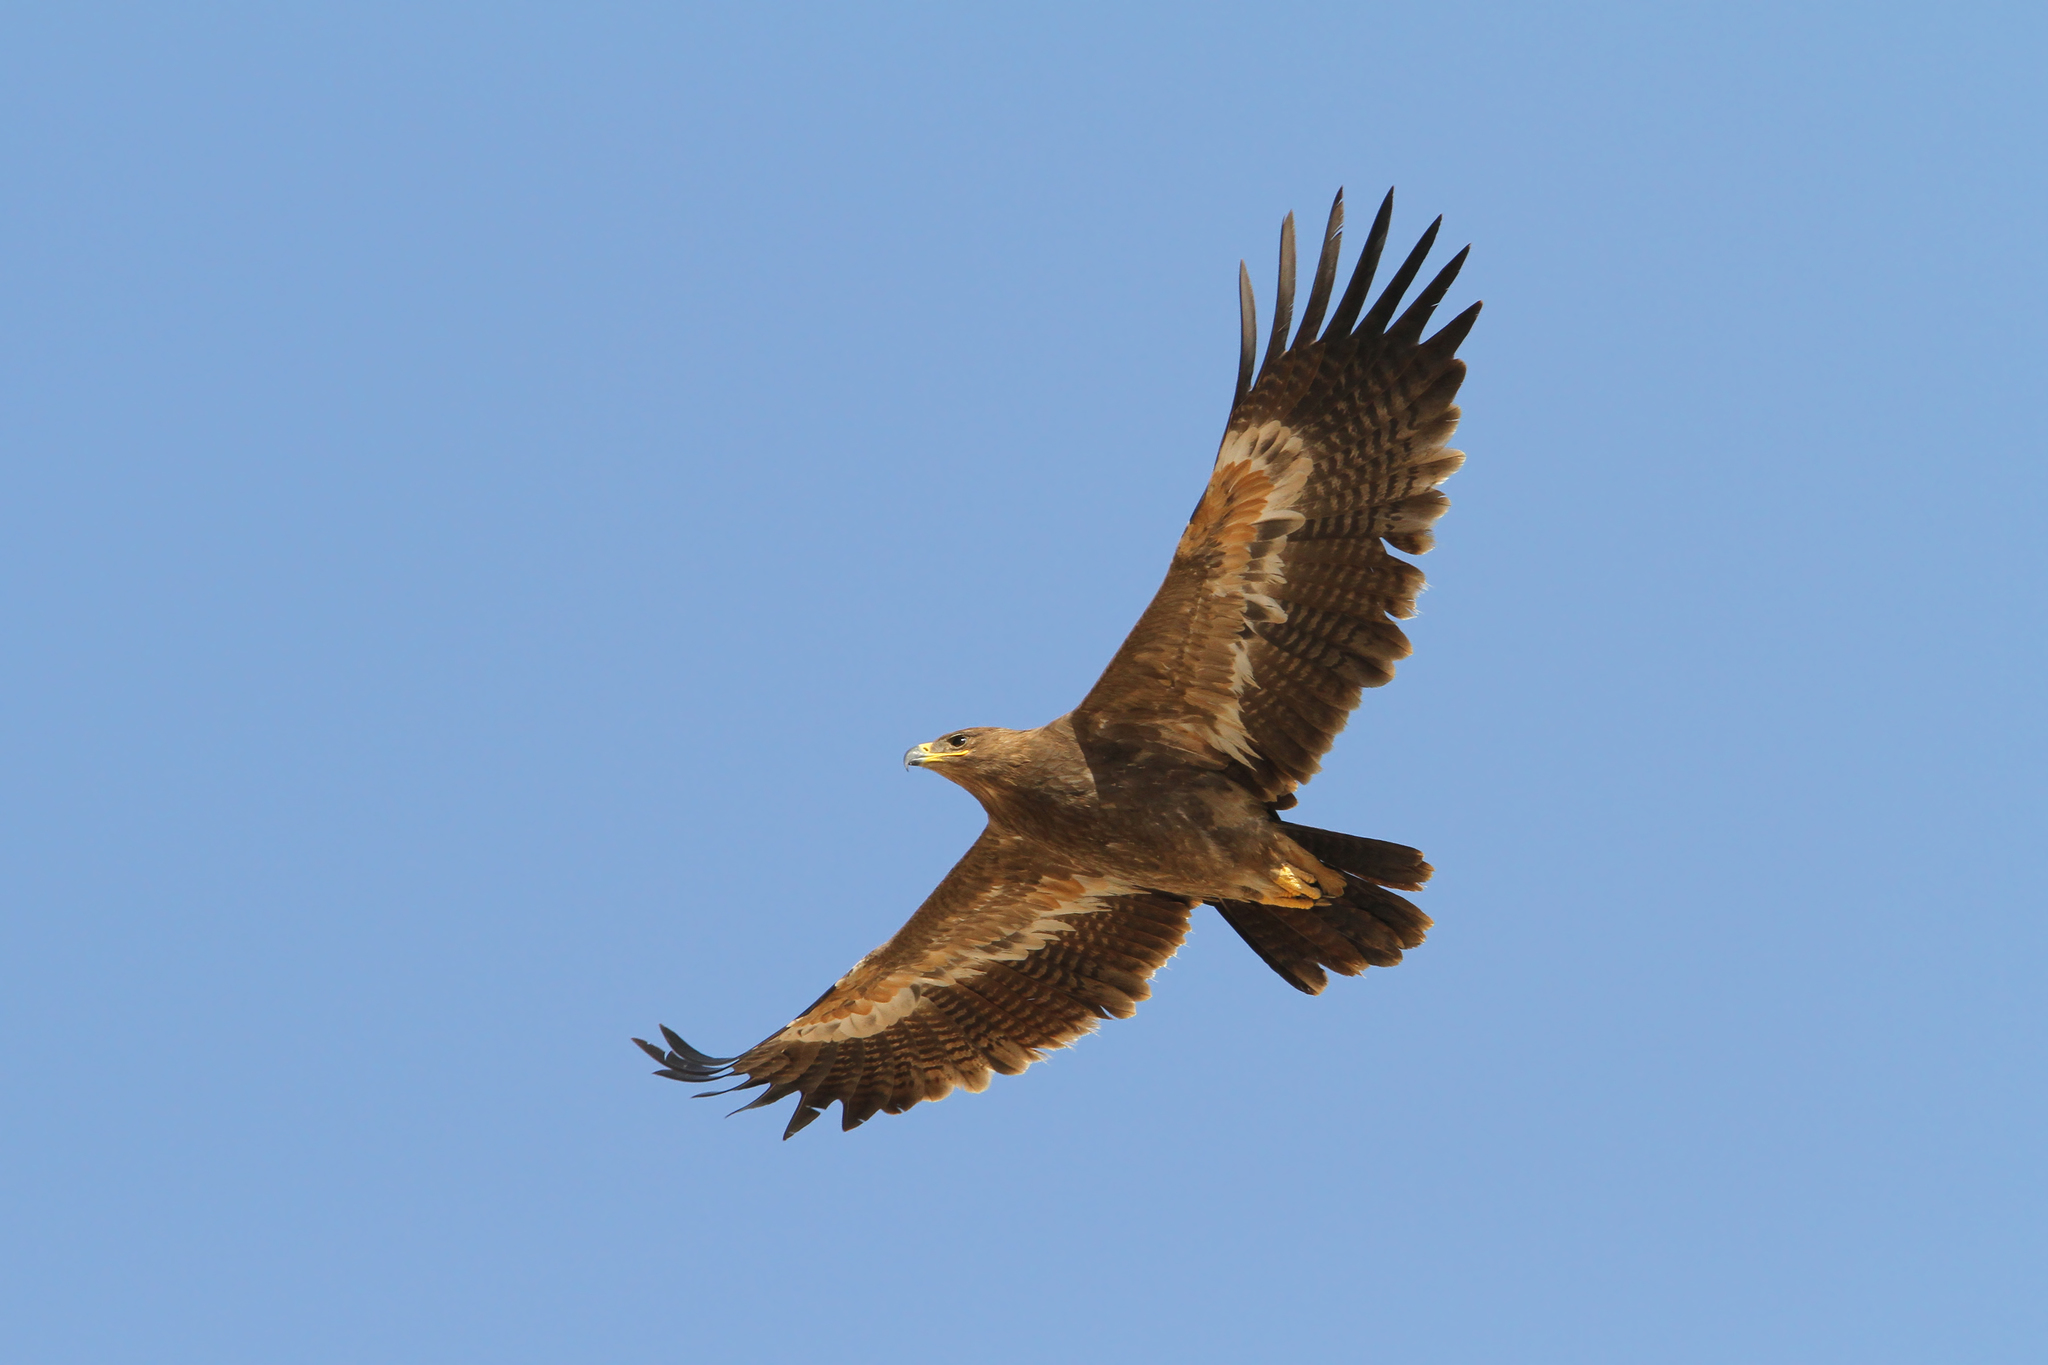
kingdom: Animalia
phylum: Chordata
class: Aves
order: Accipitriformes
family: Accipitridae
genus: Aquila
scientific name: Aquila nipalensis
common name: Steppe eagle
